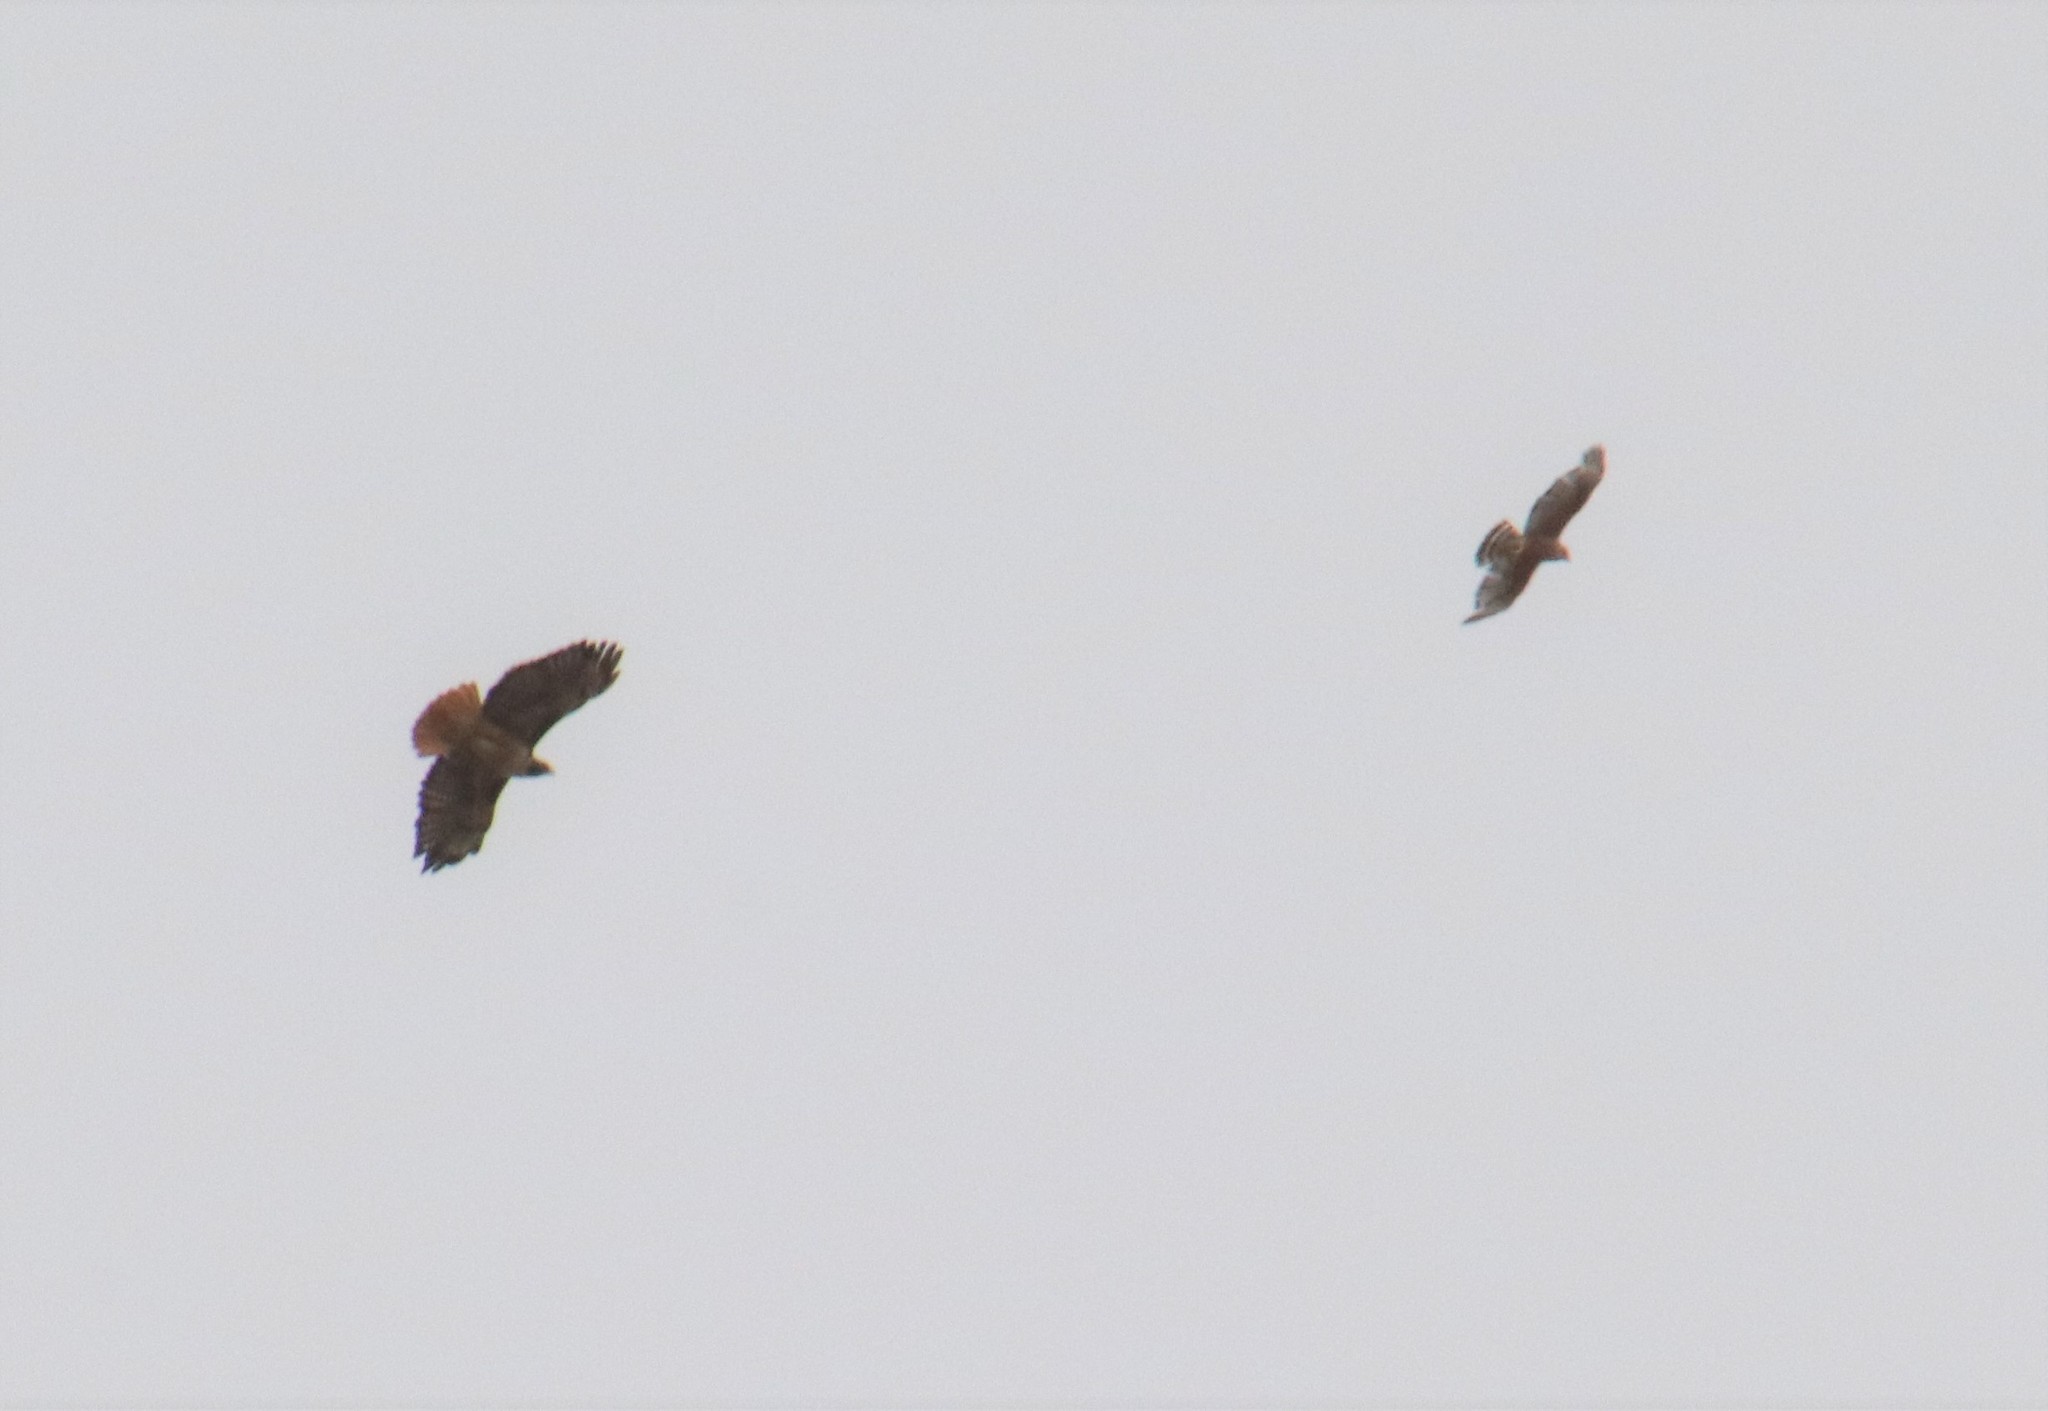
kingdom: Animalia
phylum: Chordata
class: Aves
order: Accipitriformes
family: Accipitridae
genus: Buteo
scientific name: Buteo jamaicensis
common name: Red-tailed hawk
